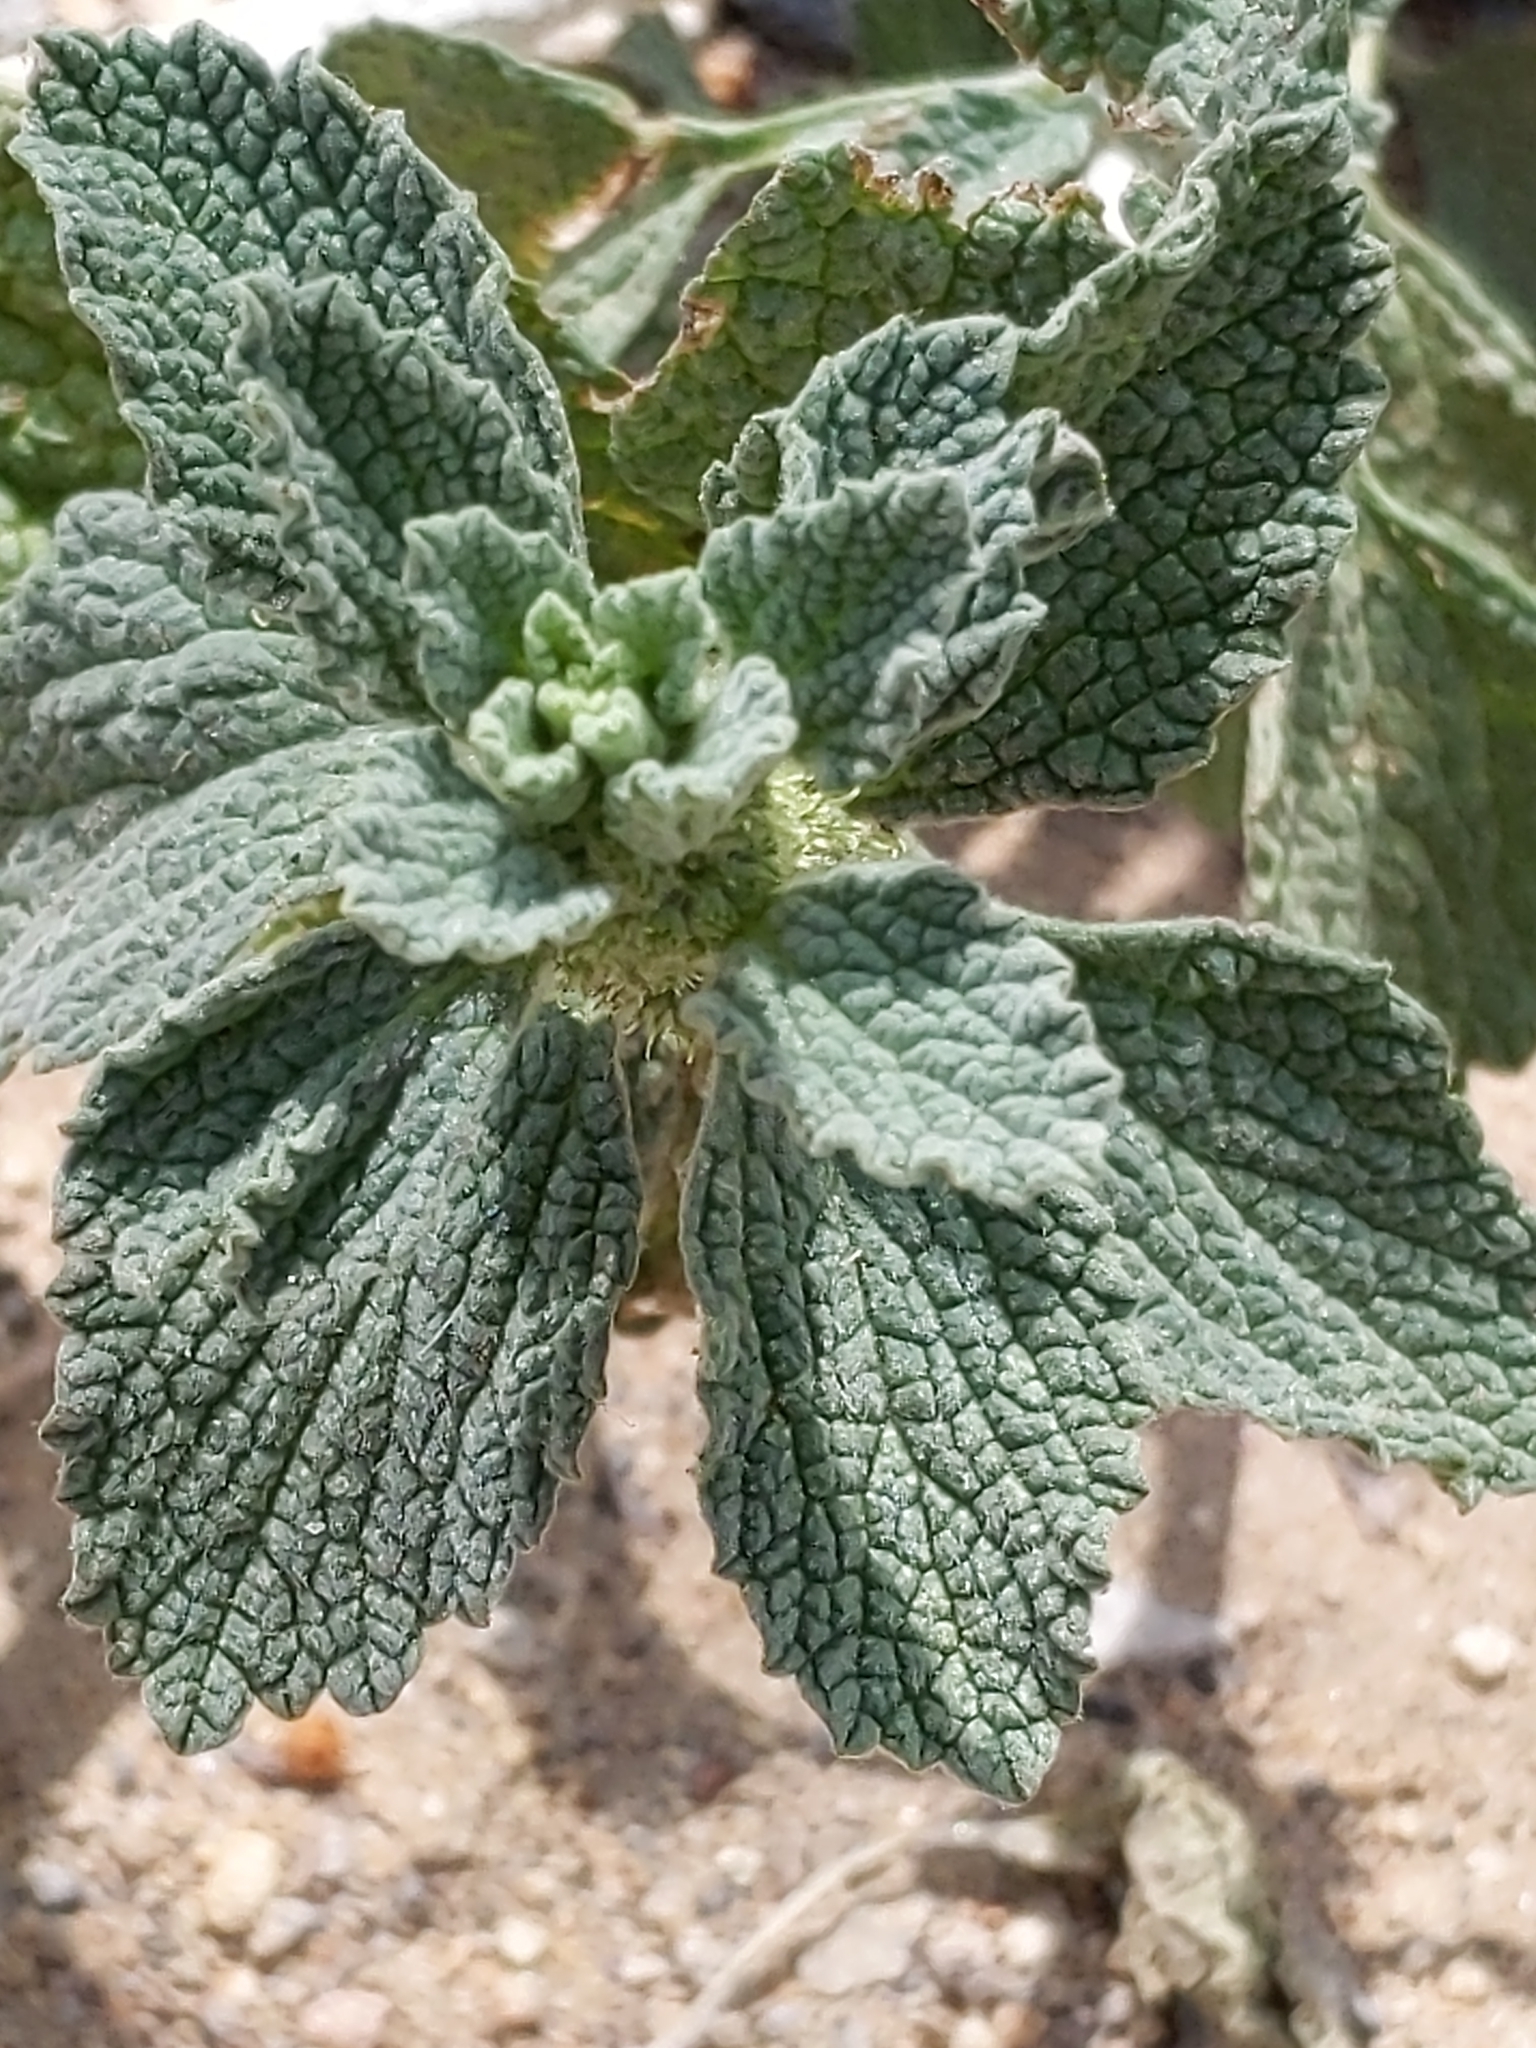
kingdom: Plantae
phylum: Tracheophyta
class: Magnoliopsida
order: Lamiales
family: Lamiaceae
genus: Marrubium
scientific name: Marrubium vulgare
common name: Horehound
